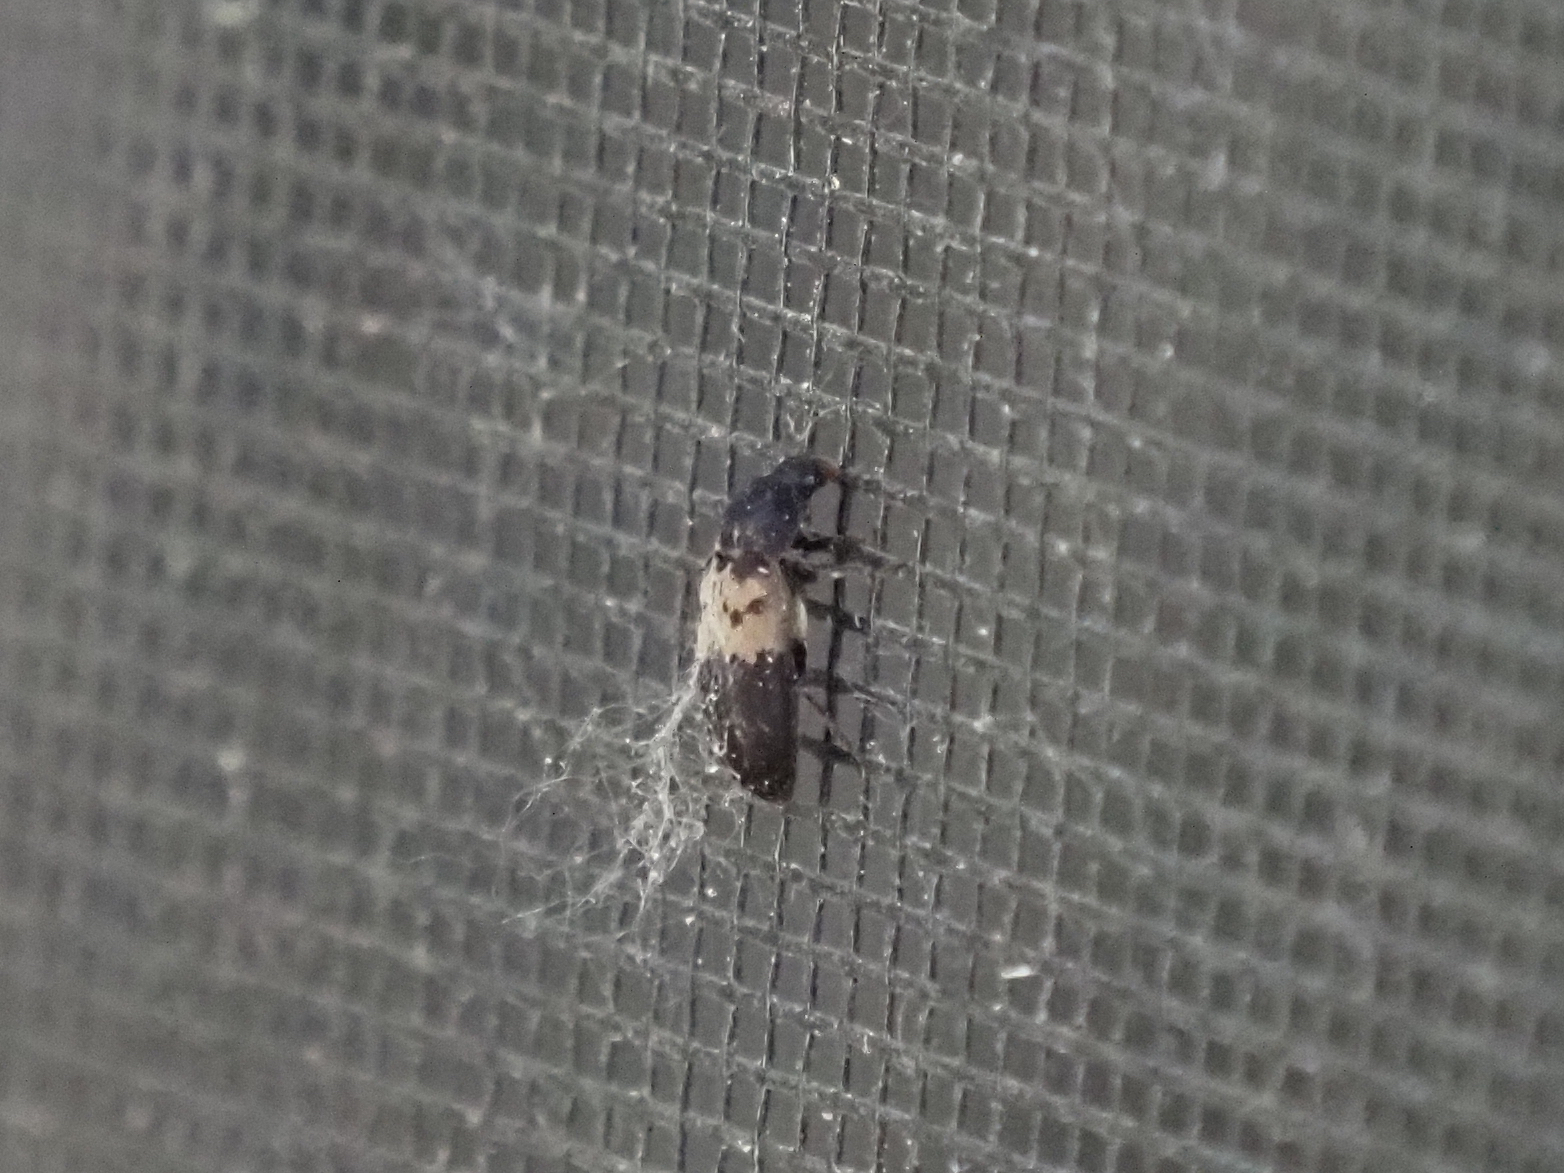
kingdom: Animalia
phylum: Arthropoda
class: Insecta
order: Coleoptera
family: Dermestidae
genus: Dermestes
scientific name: Dermestes lardarius
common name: Larder beetle
